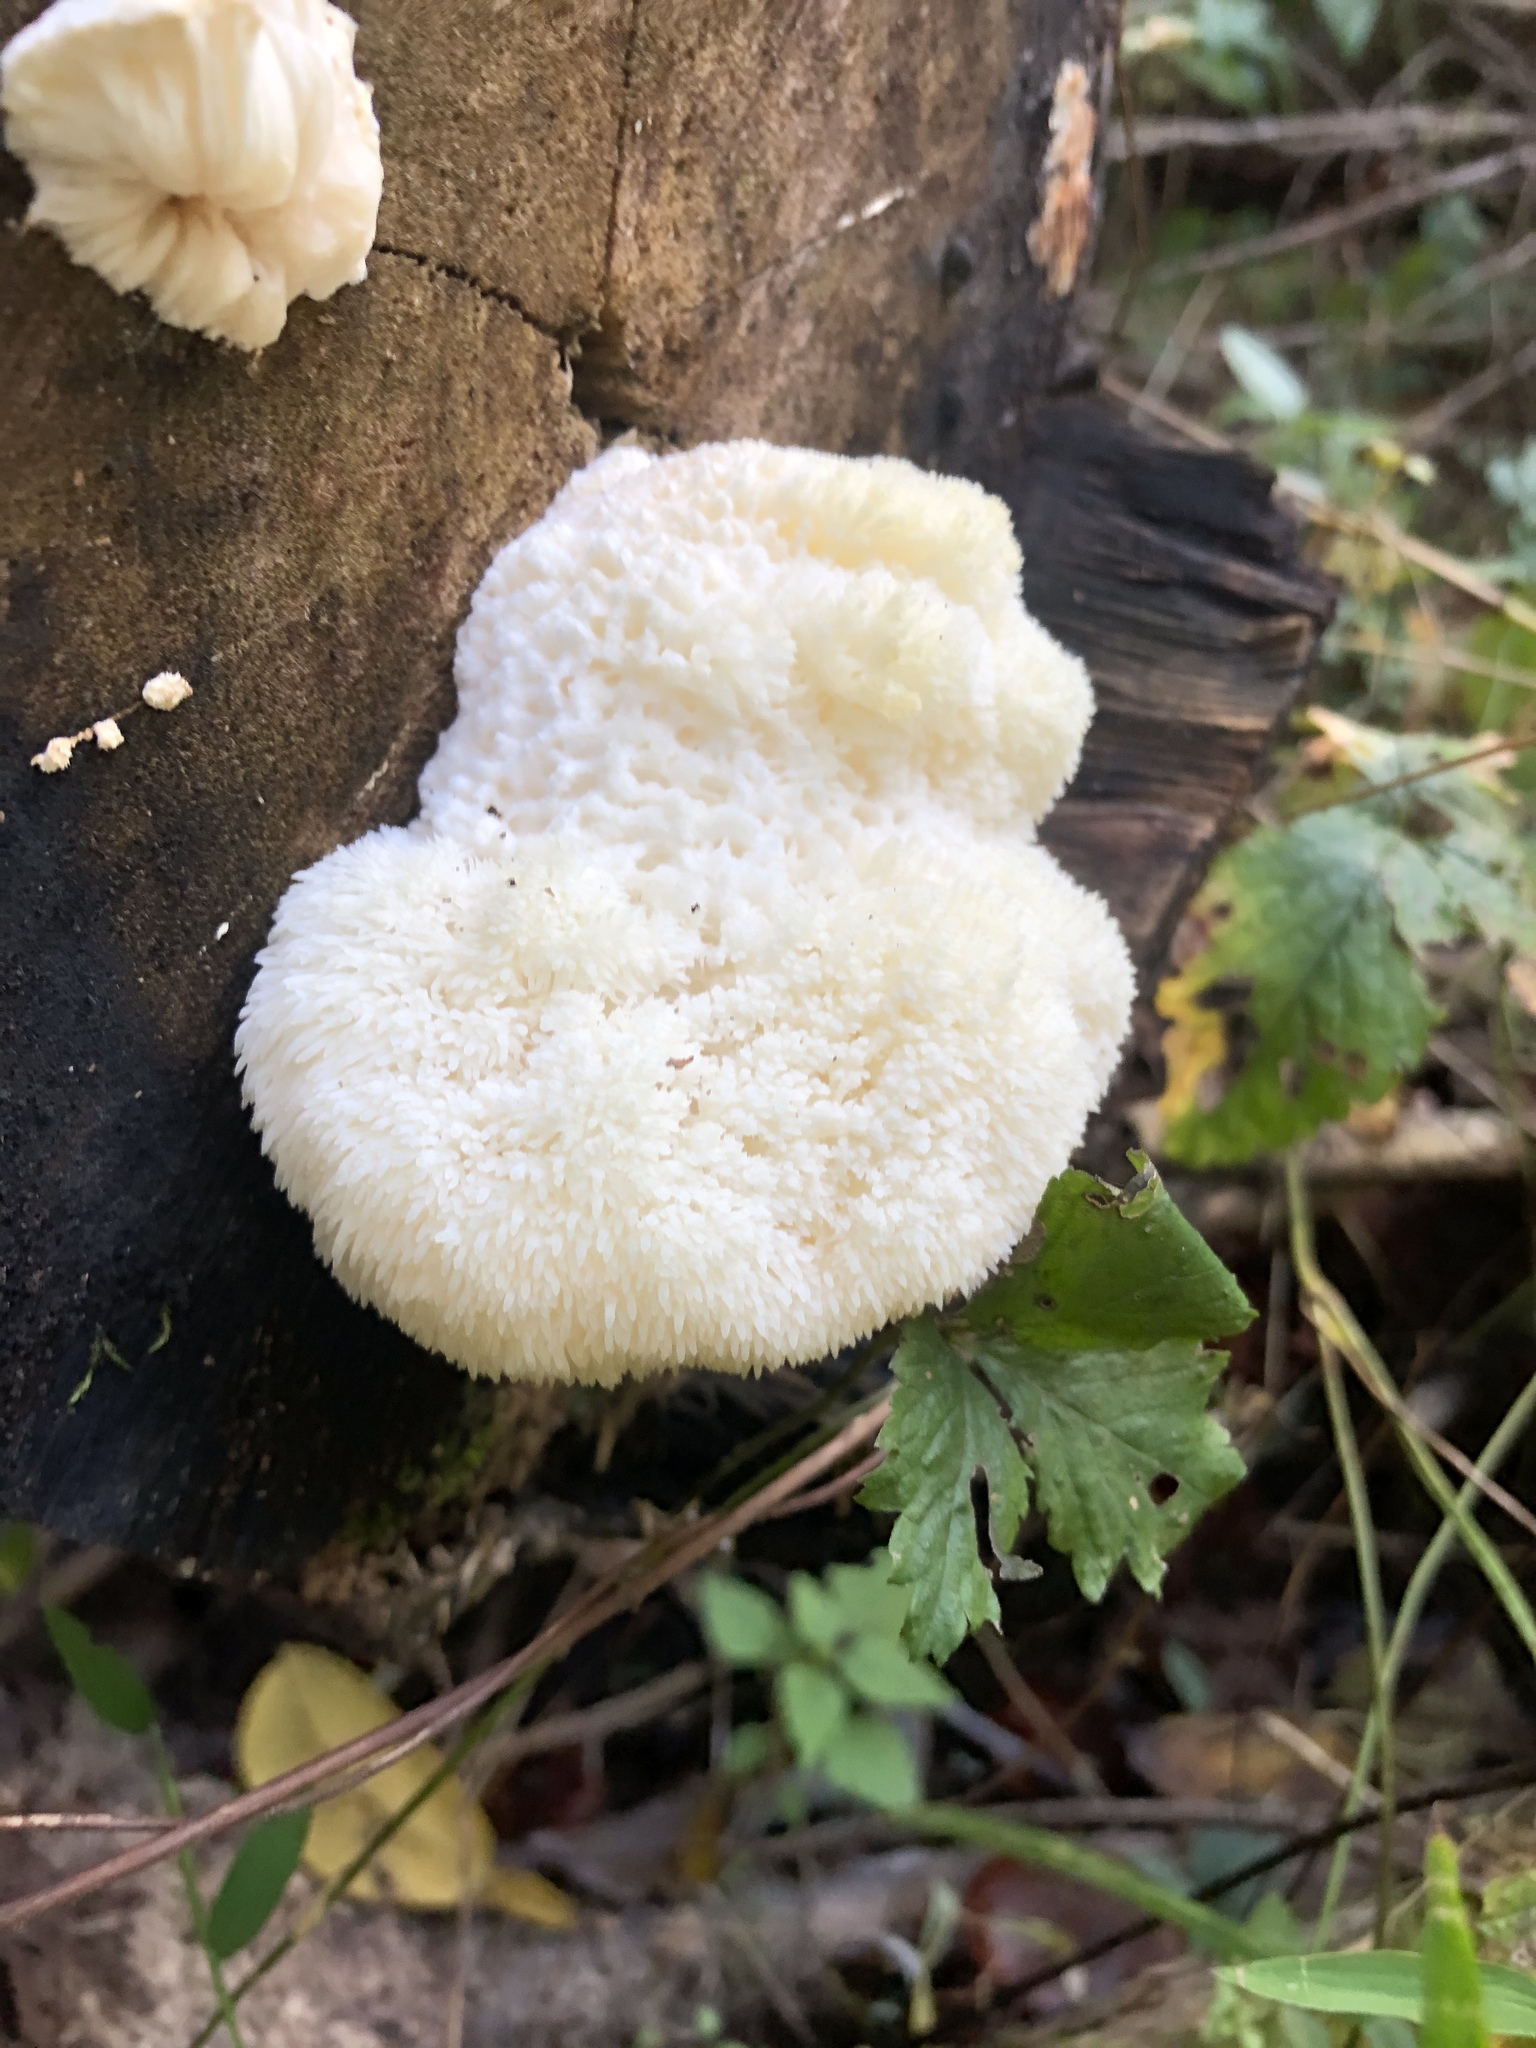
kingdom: Fungi
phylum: Basidiomycota
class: Agaricomycetes
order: Russulales
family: Hericiaceae
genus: Hericium
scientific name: Hericium erinaceus
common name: Bearded tooth
